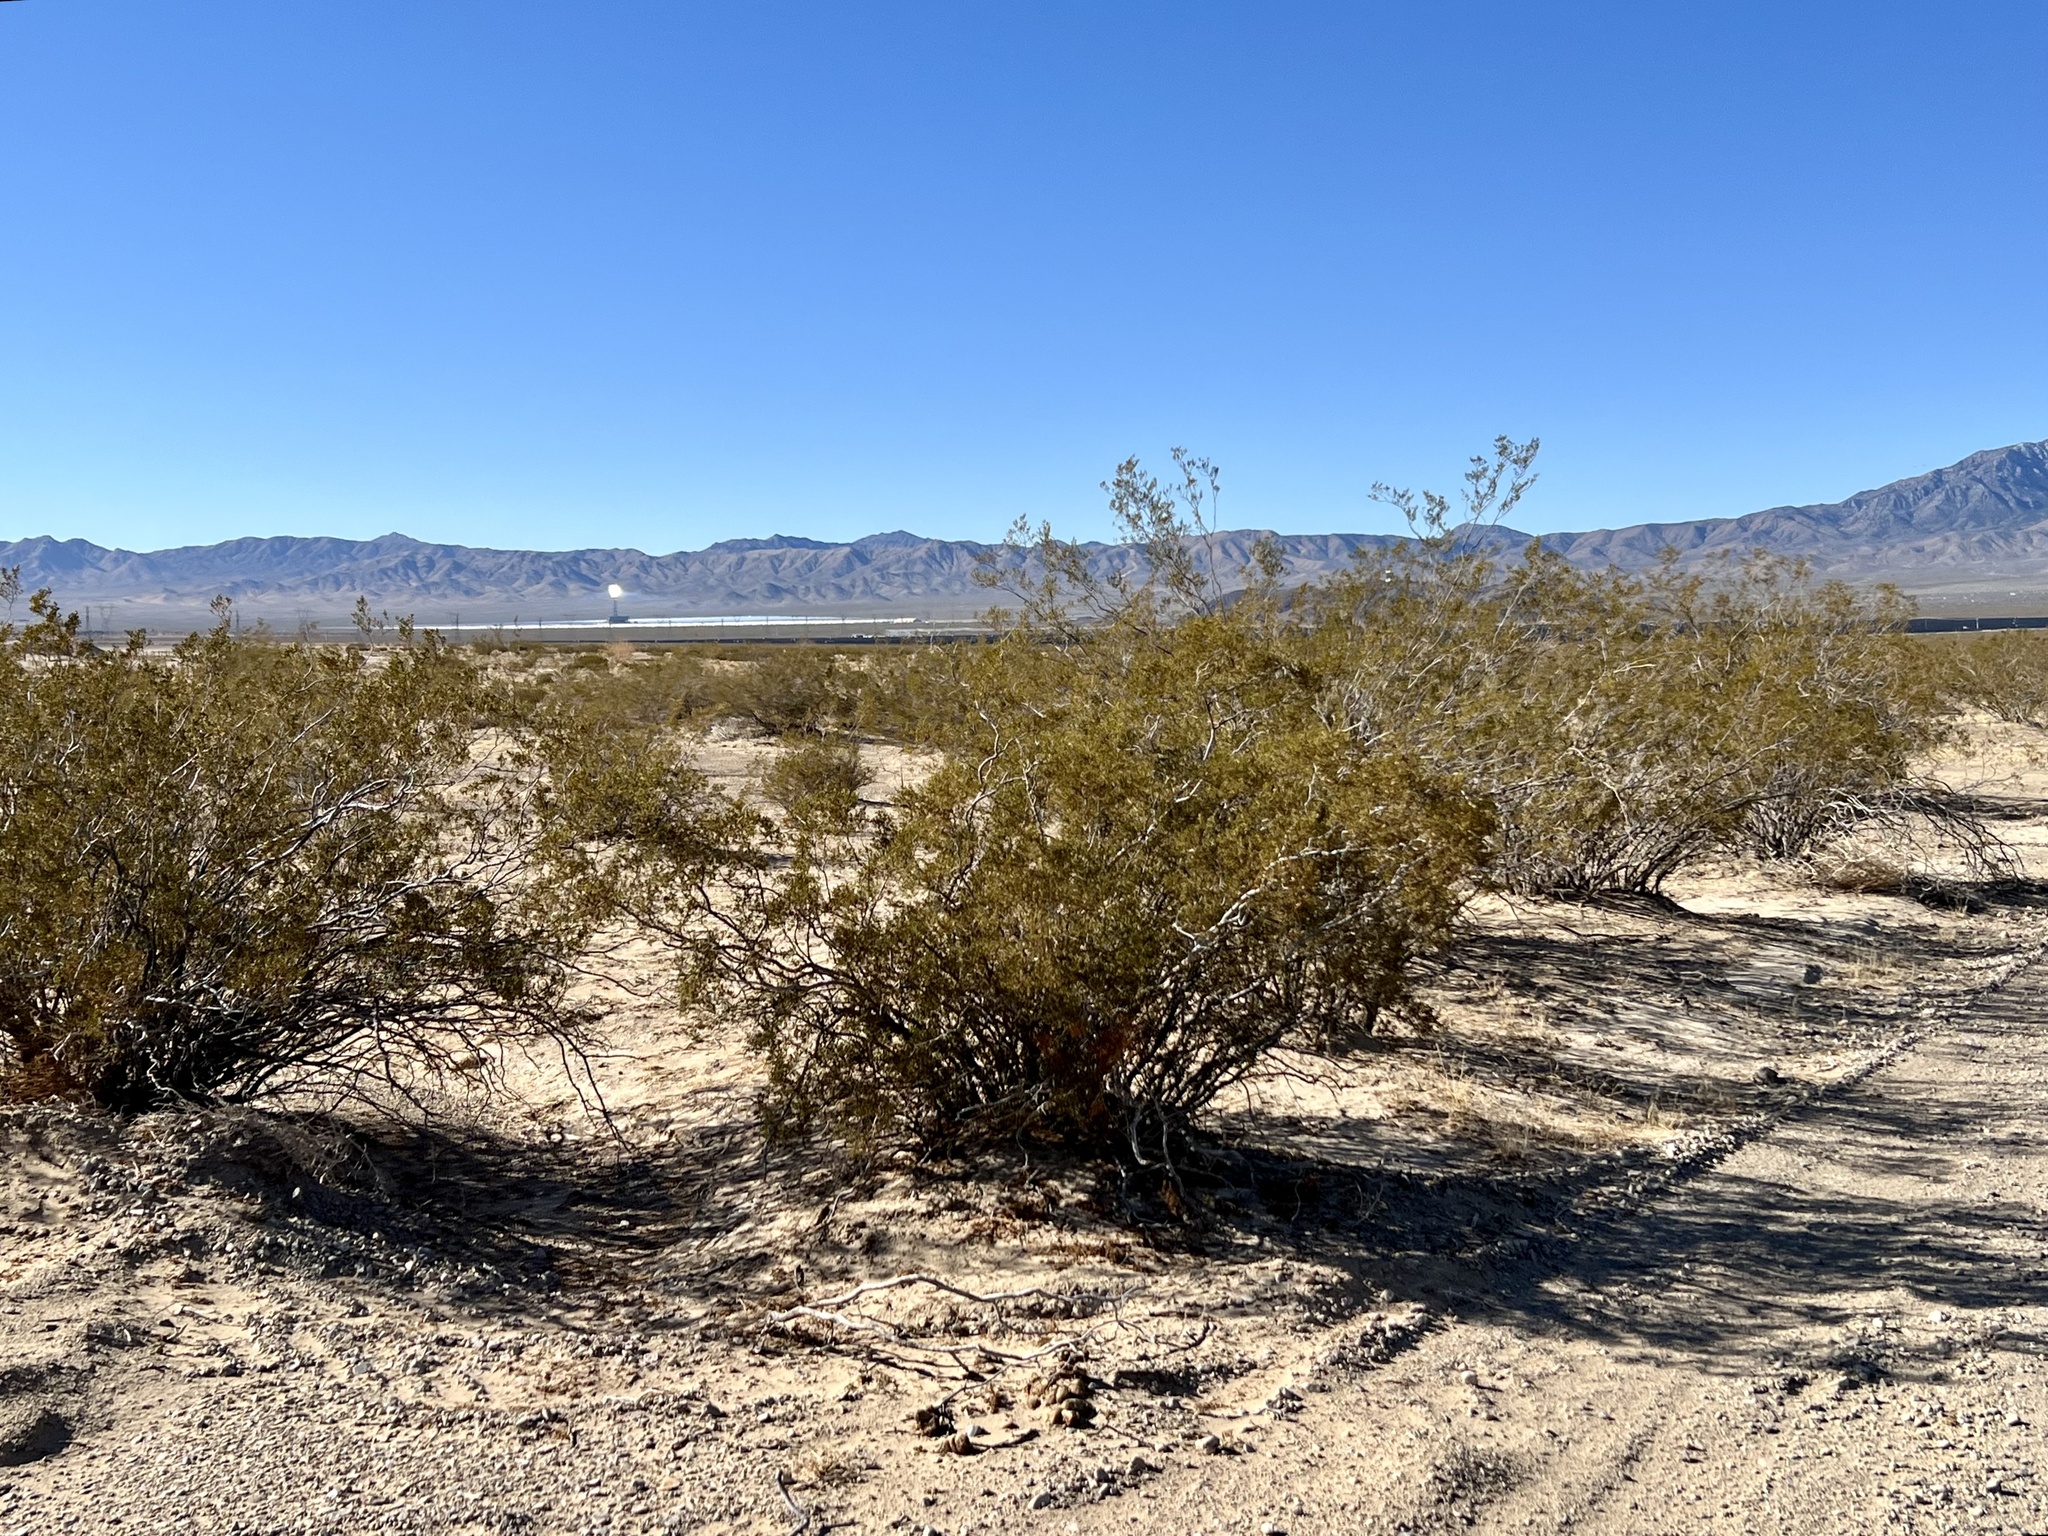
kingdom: Plantae
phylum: Tracheophyta
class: Magnoliopsida
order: Zygophyllales
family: Zygophyllaceae
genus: Larrea
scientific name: Larrea tridentata
